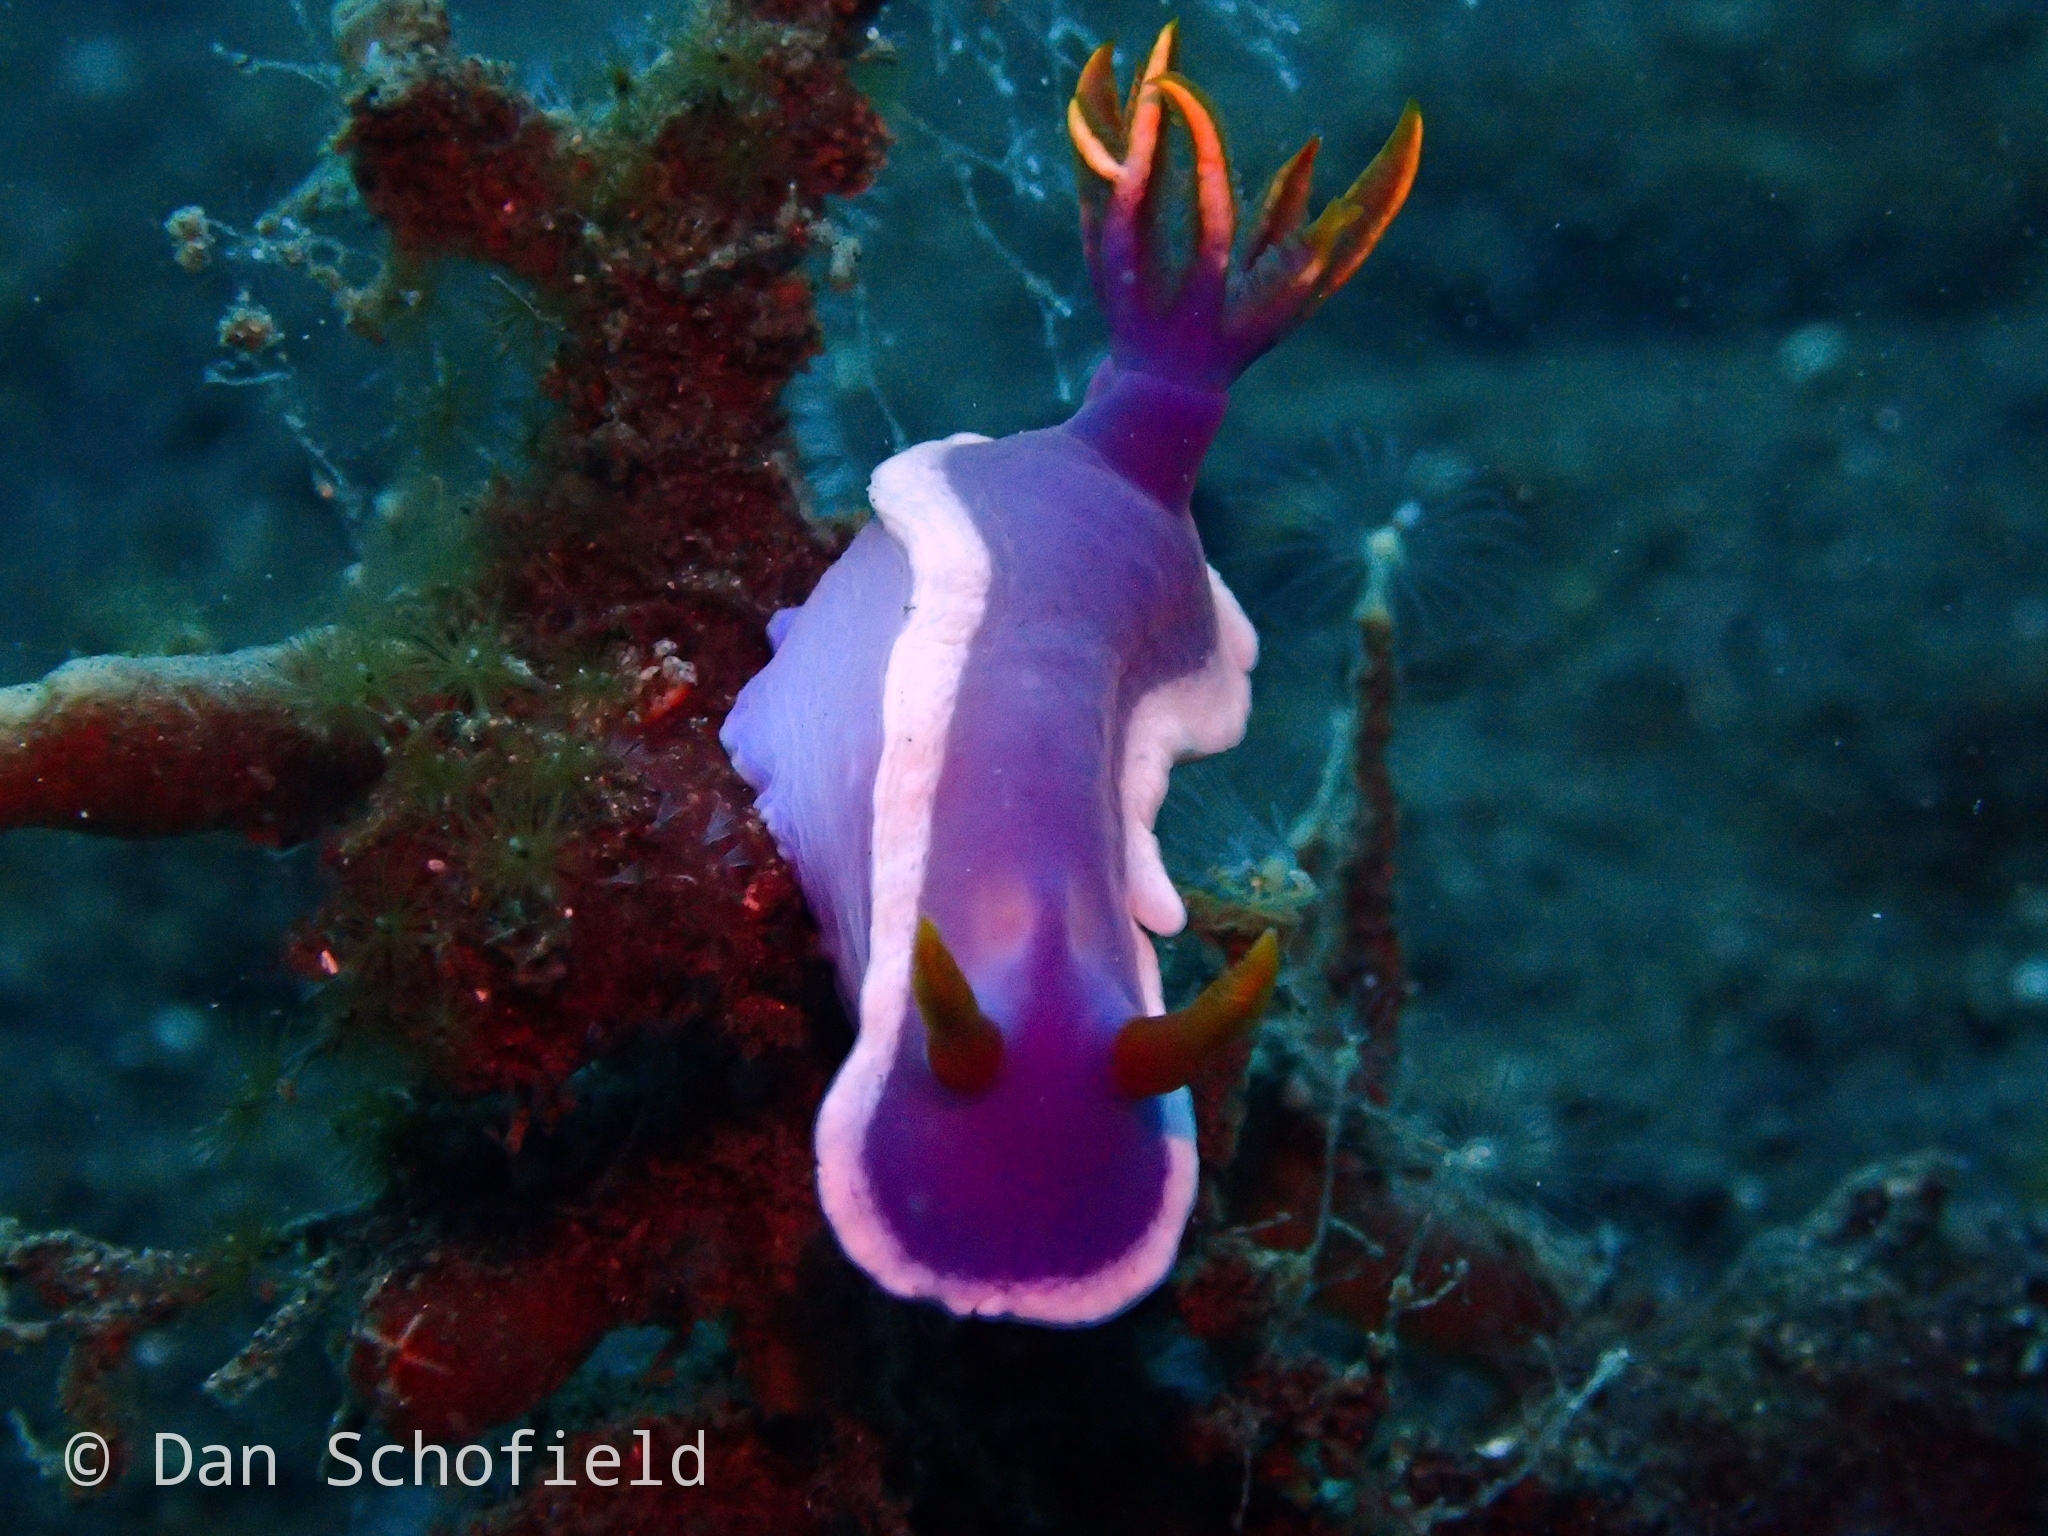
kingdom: Animalia
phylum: Mollusca
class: Gastropoda
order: Nudibranchia
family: Chromodorididae
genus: Hypselodoris
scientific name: Hypselodoris variobranchia
